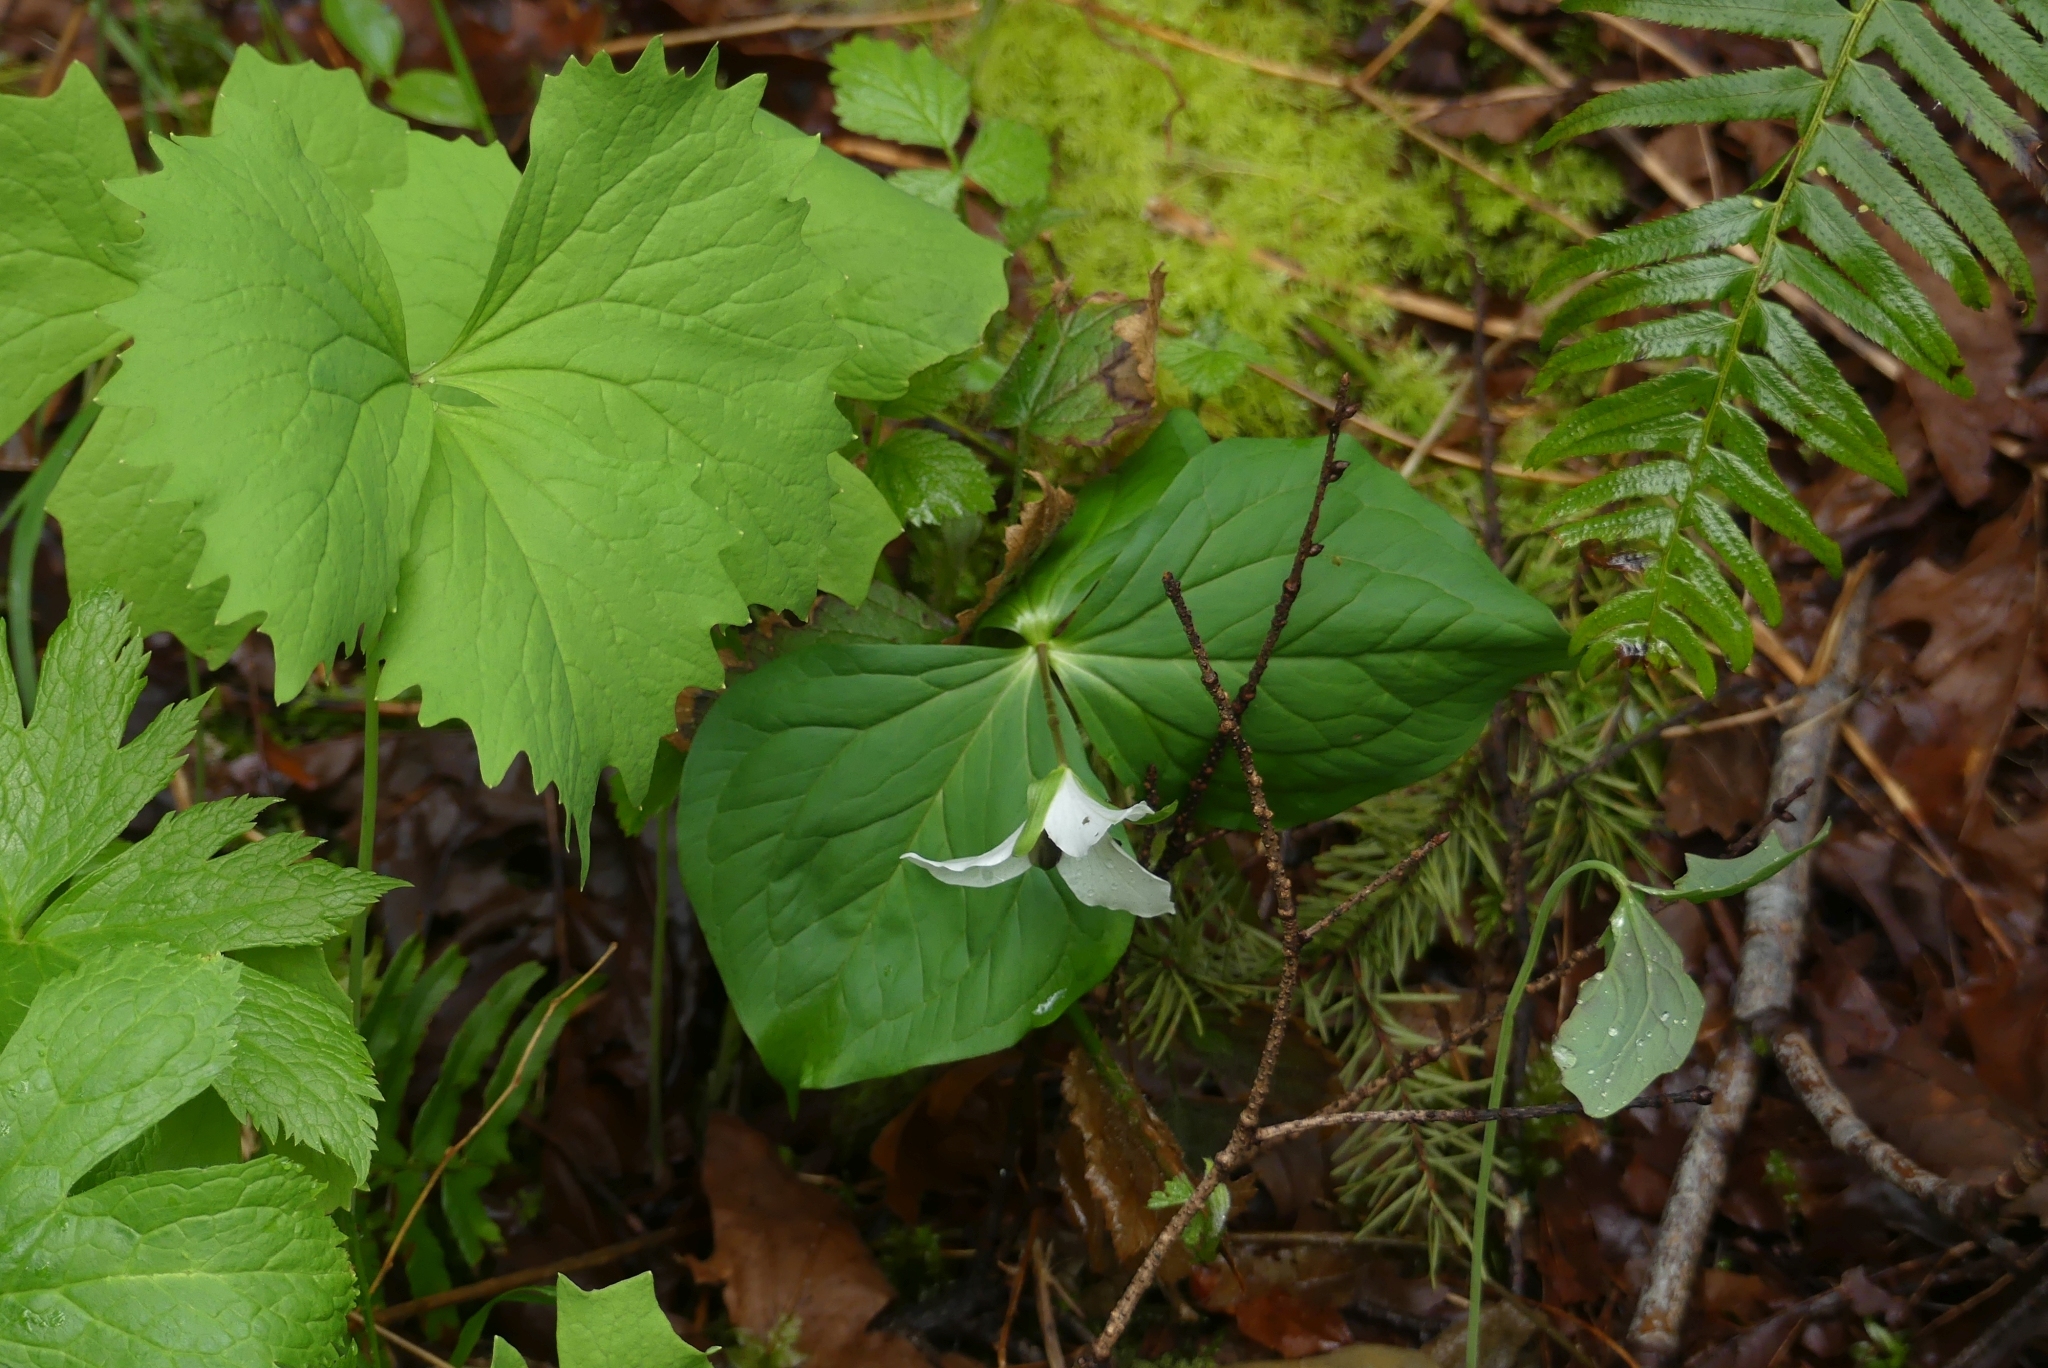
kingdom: Plantae
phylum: Tracheophyta
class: Liliopsida
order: Liliales
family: Melanthiaceae
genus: Trillium
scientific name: Trillium ovatum
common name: Pacific trillium
